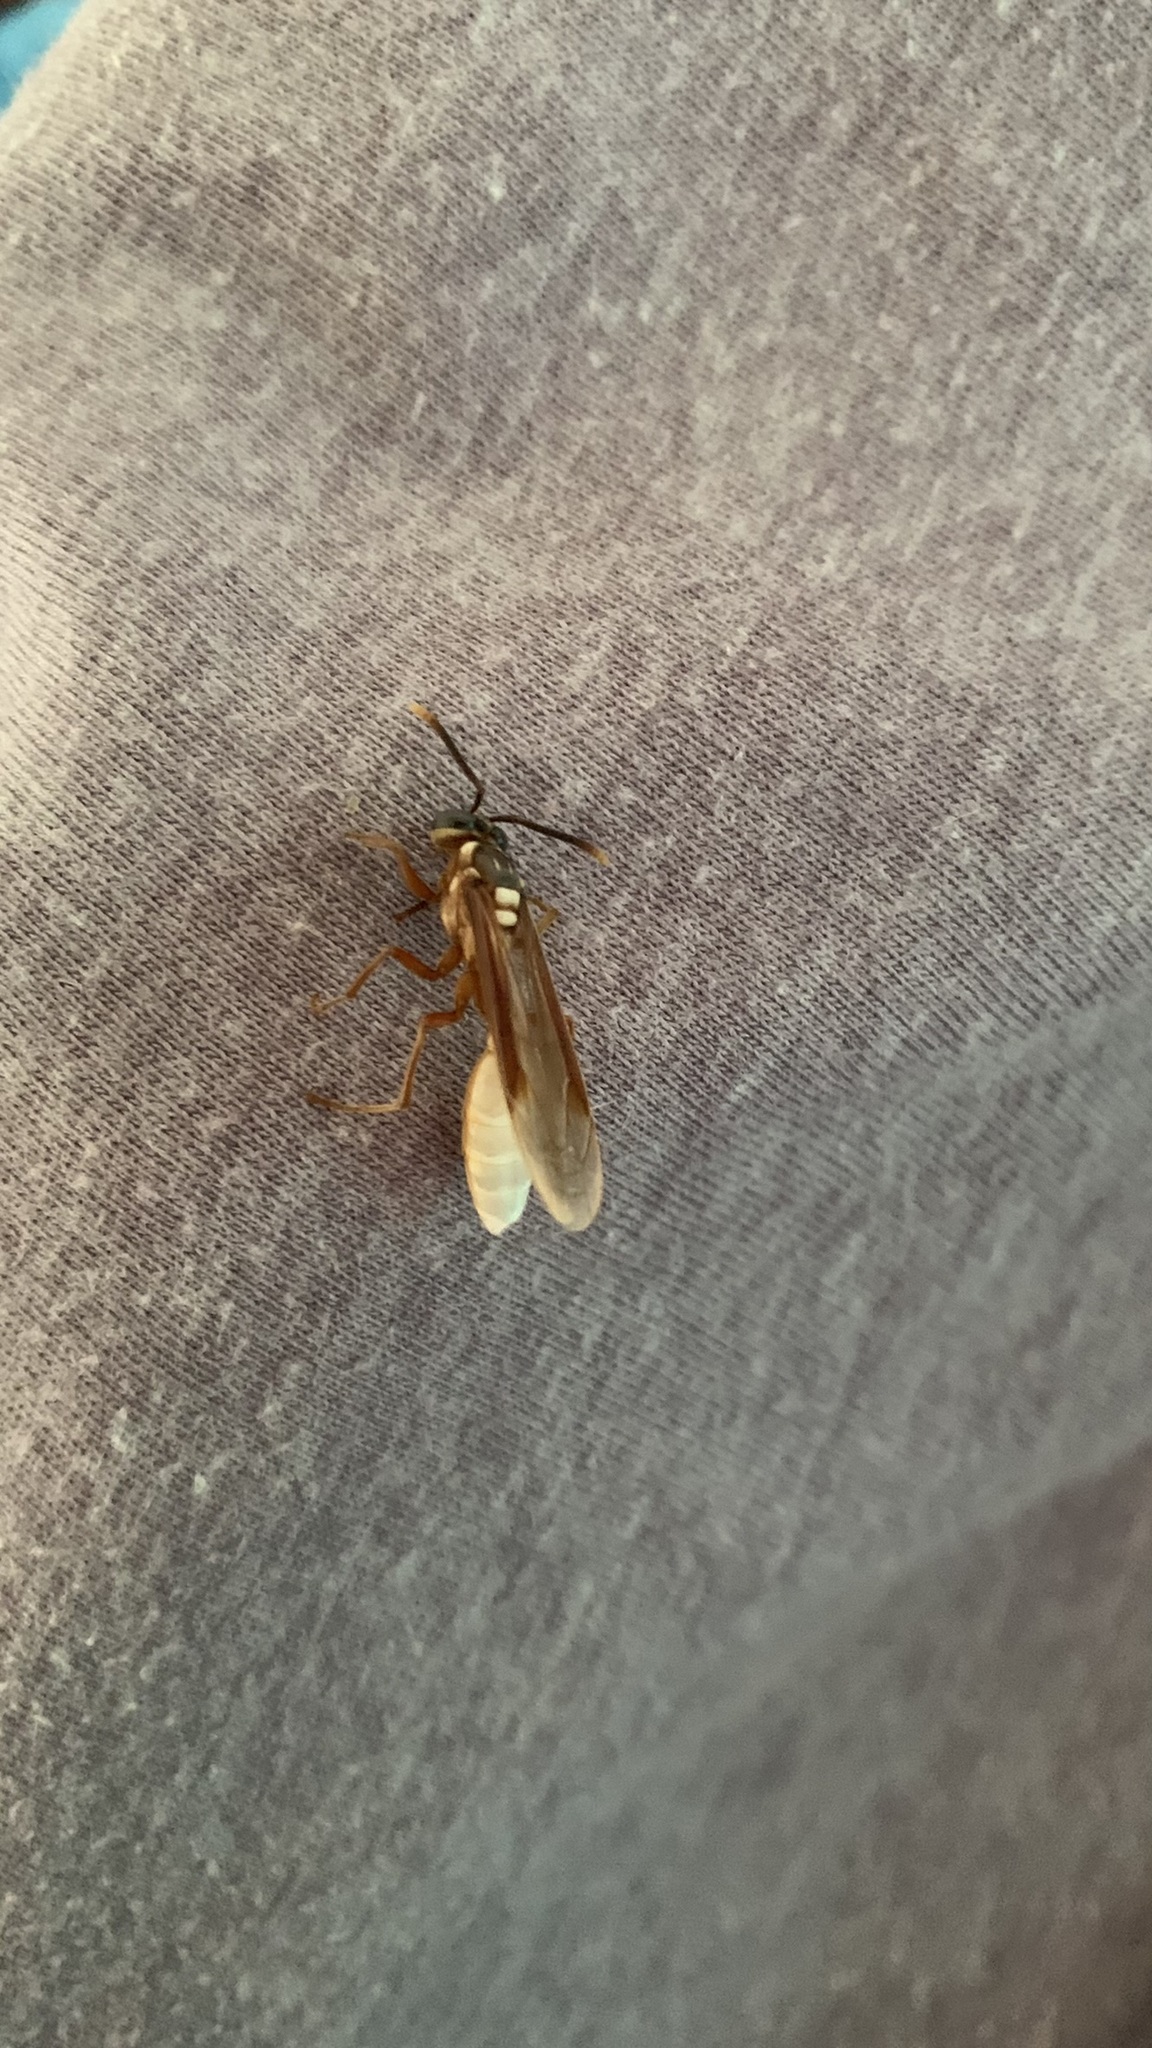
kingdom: Animalia
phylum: Arthropoda
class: Insecta
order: Hymenoptera
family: Vespidae
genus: Apoica
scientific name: Apoica pallens
